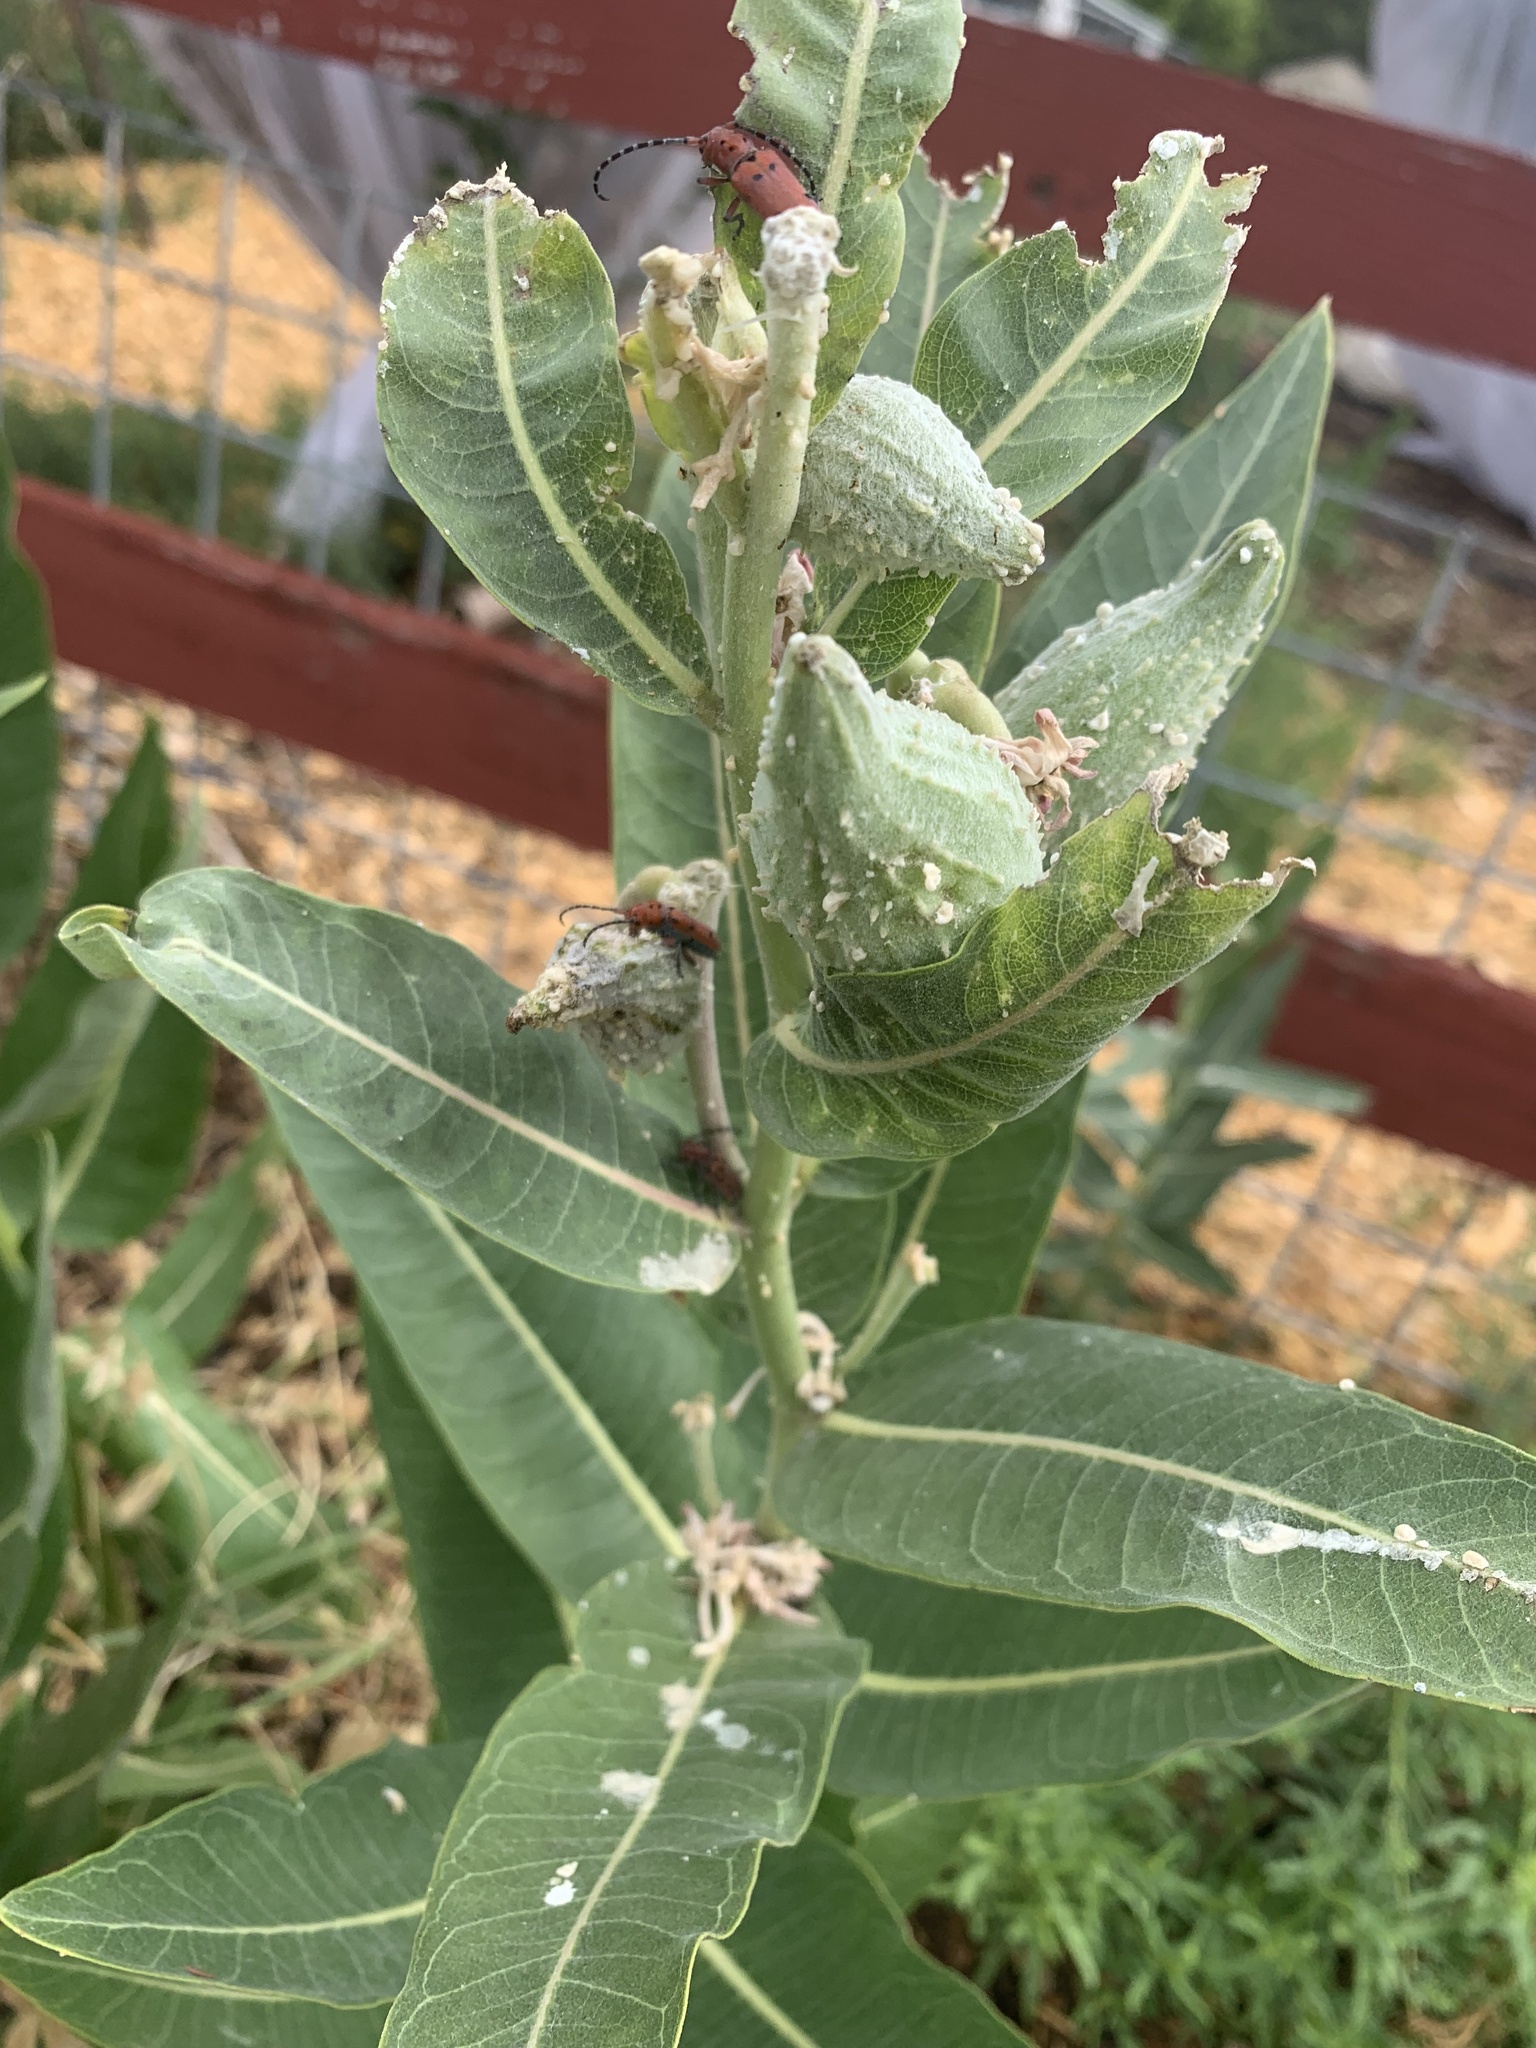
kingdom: Animalia
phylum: Arthropoda
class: Insecta
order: Coleoptera
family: Cerambycidae
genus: Tetraopes
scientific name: Tetraopes femoratus
